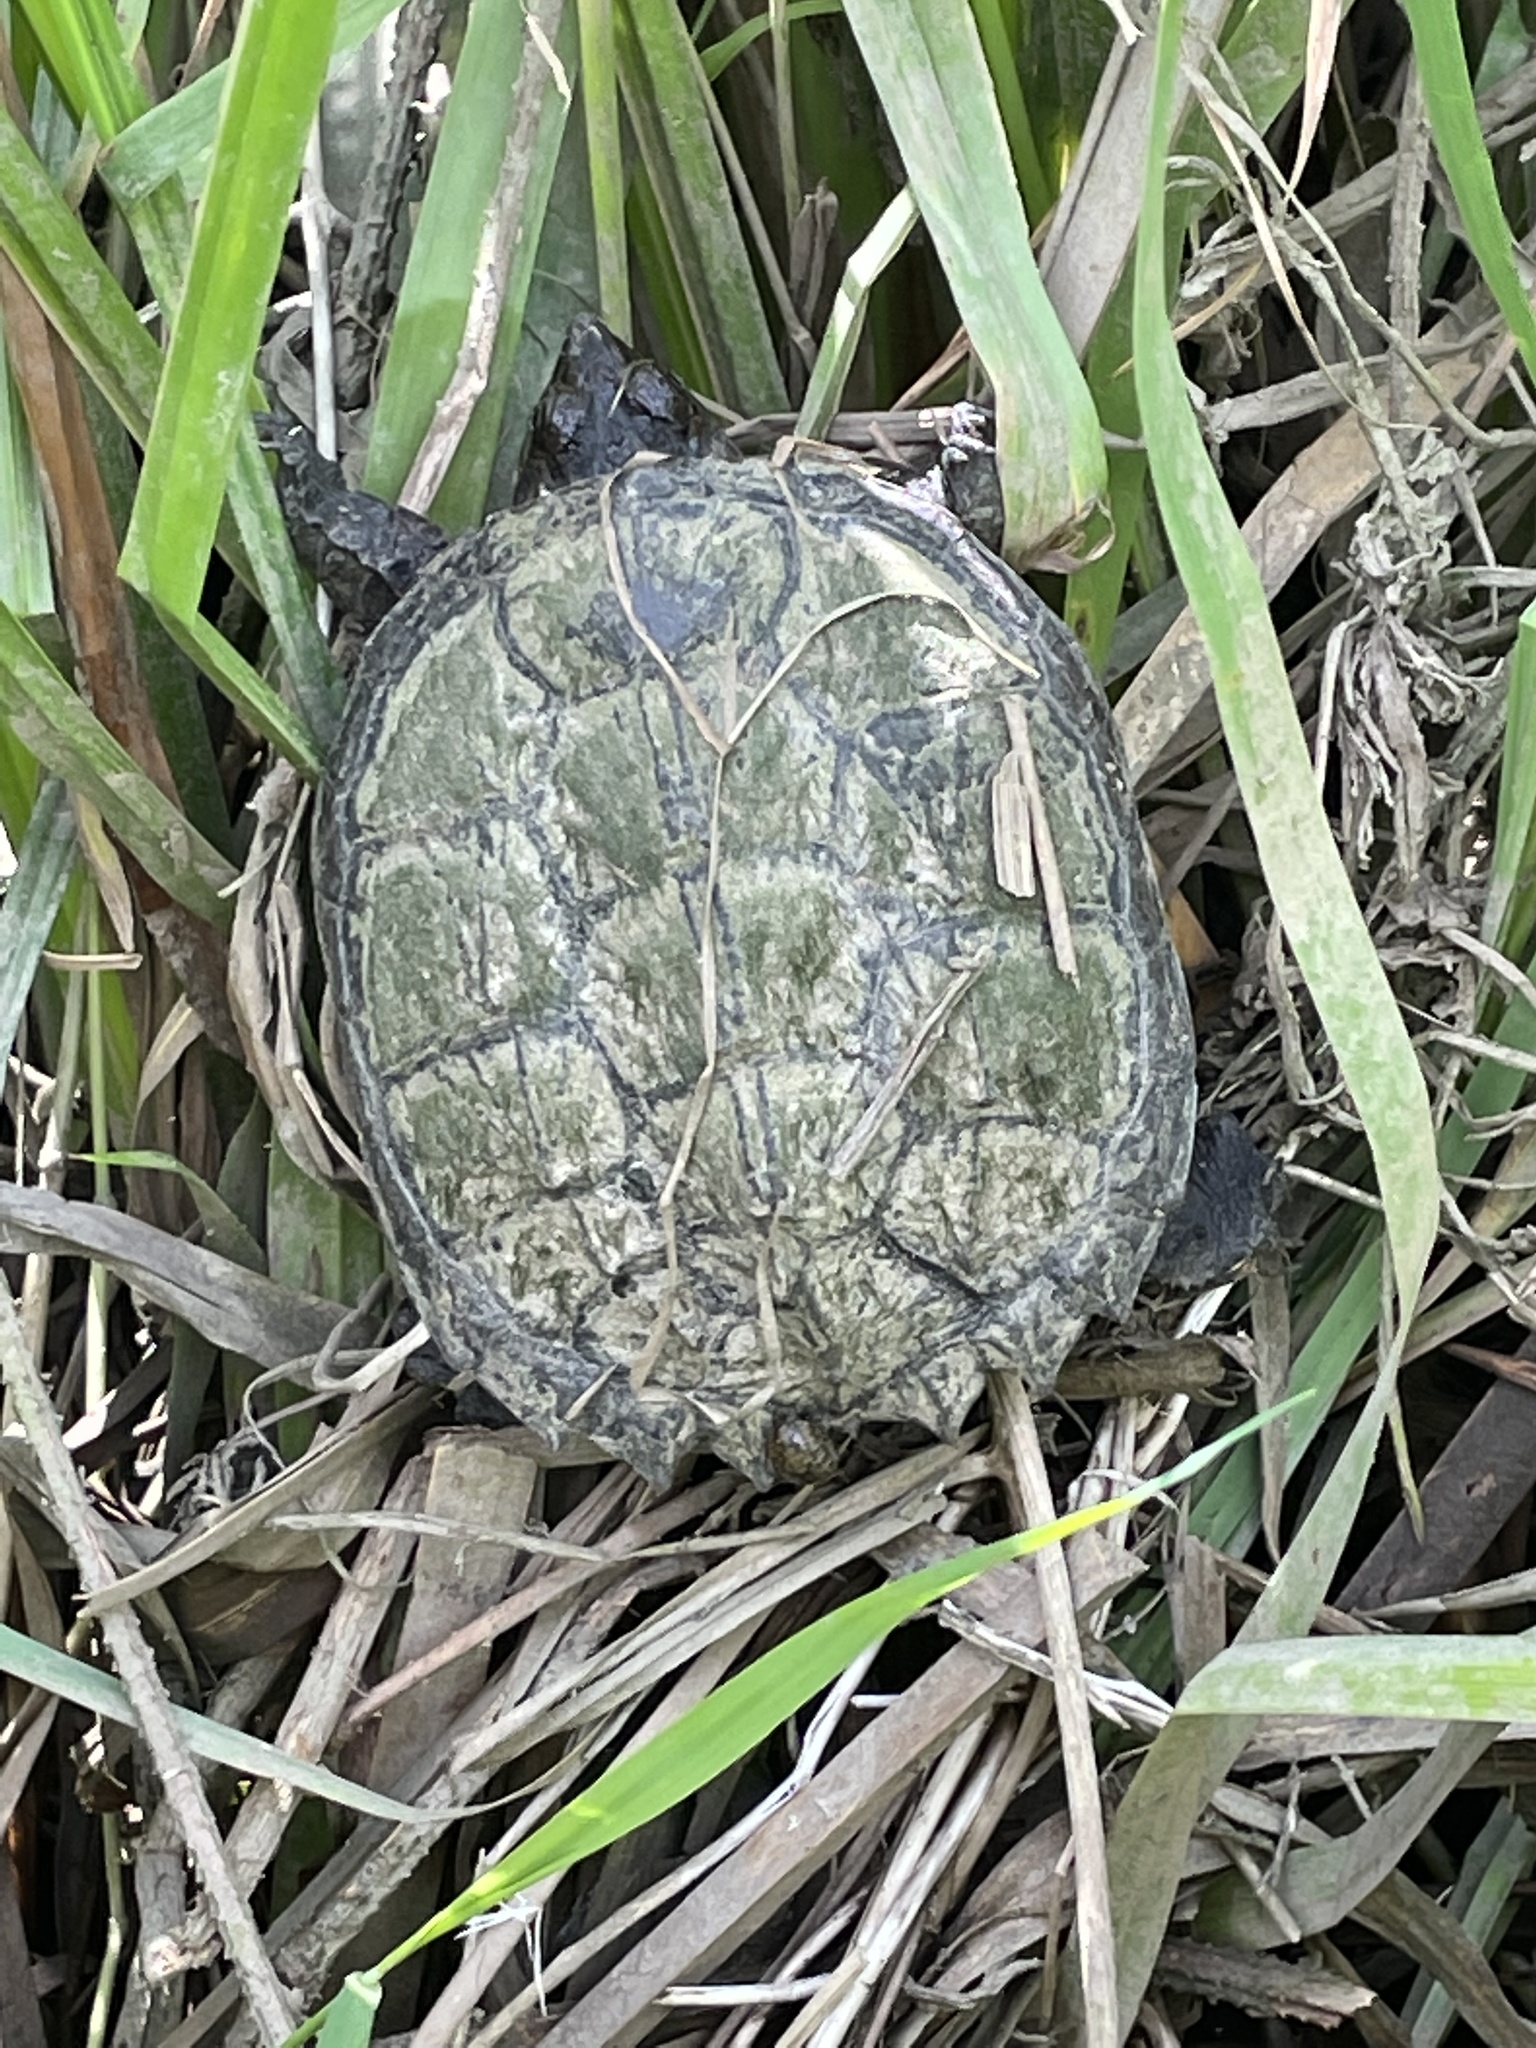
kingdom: Animalia
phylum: Chordata
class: Testudines
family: Chelydridae
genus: Chelydra
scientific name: Chelydra serpentina
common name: Common snapping turtle
